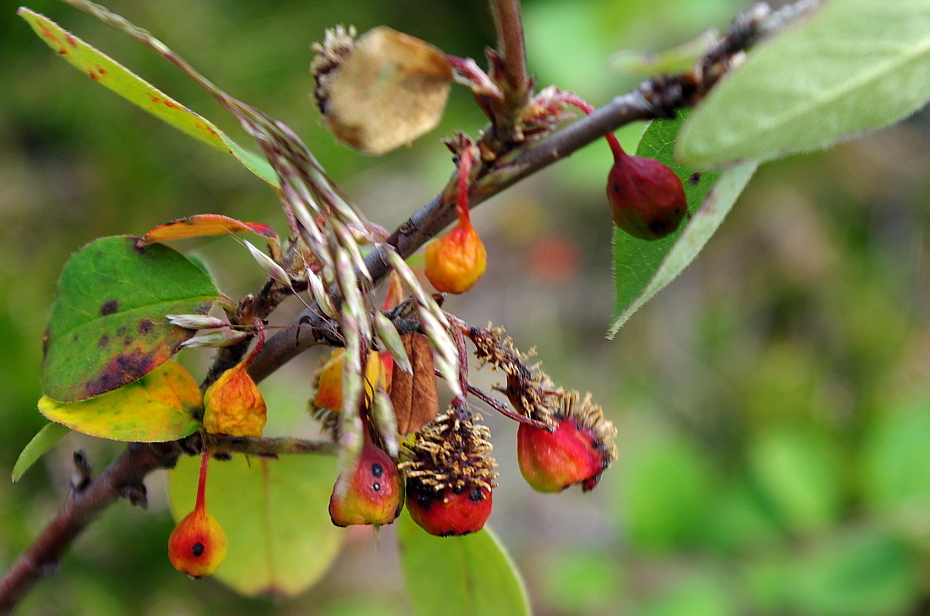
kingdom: Fungi
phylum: Basidiomycota
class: Pucciniomycetes
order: Pucciniales
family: Gymnosporangiaceae
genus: Gymnosporangium
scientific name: Gymnosporangium
